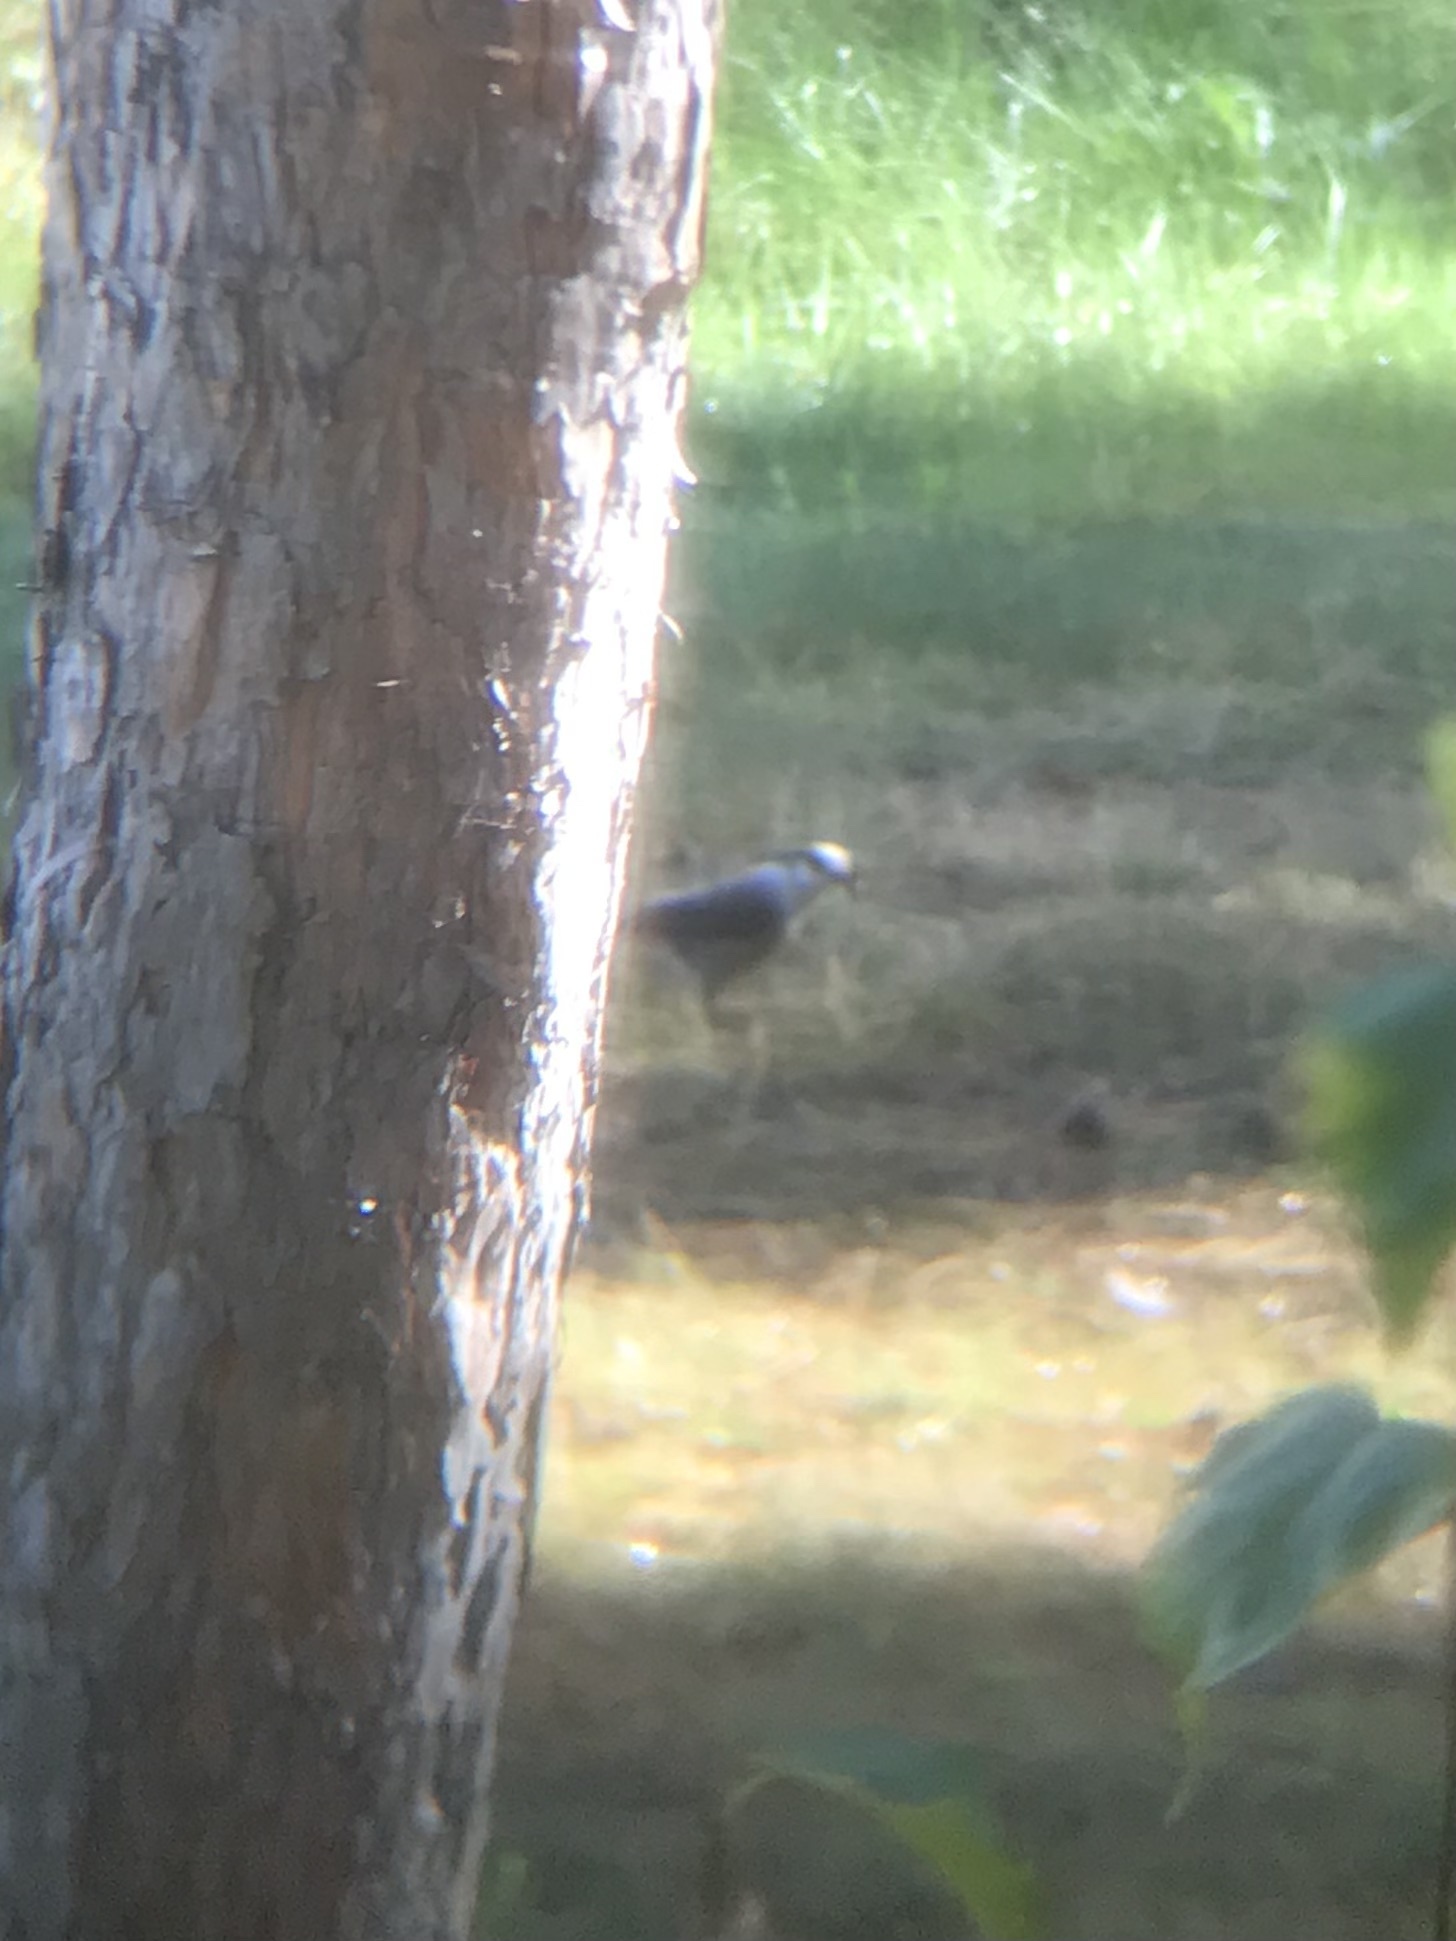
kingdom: Animalia
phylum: Chordata
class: Aves
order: Passeriformes
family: Corvidae
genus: Perisoreus
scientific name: Perisoreus canadensis
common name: Gray jay
